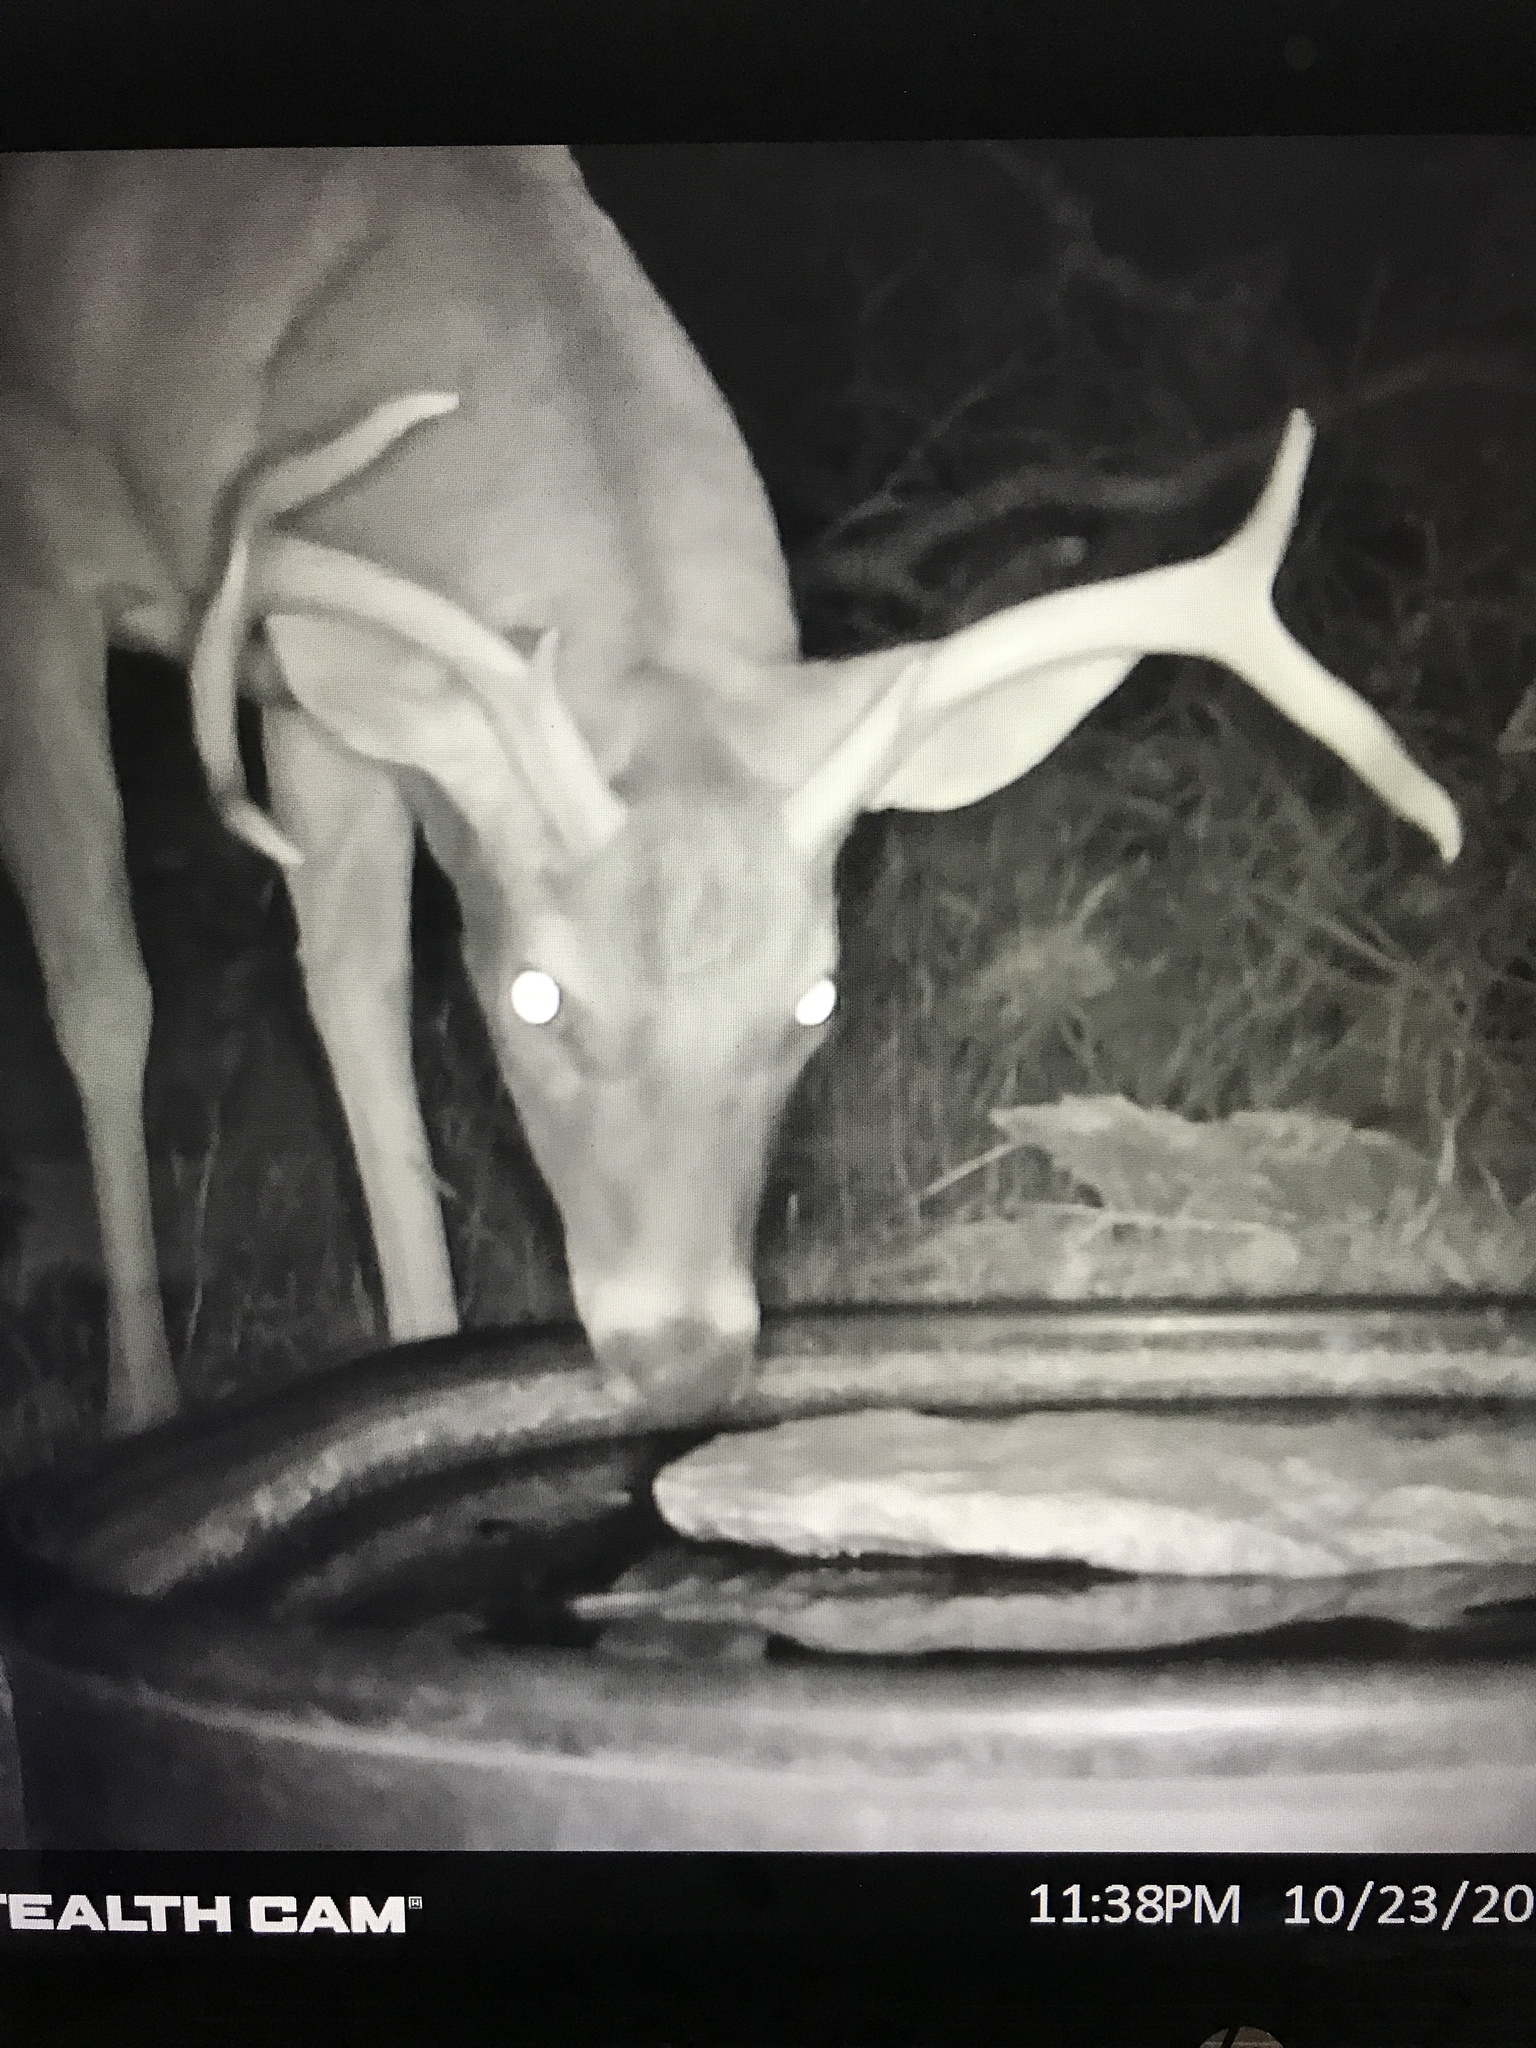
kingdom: Animalia
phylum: Chordata
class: Mammalia
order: Artiodactyla
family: Cervidae
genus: Odocoileus
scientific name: Odocoileus virginianus
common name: White-tailed deer
